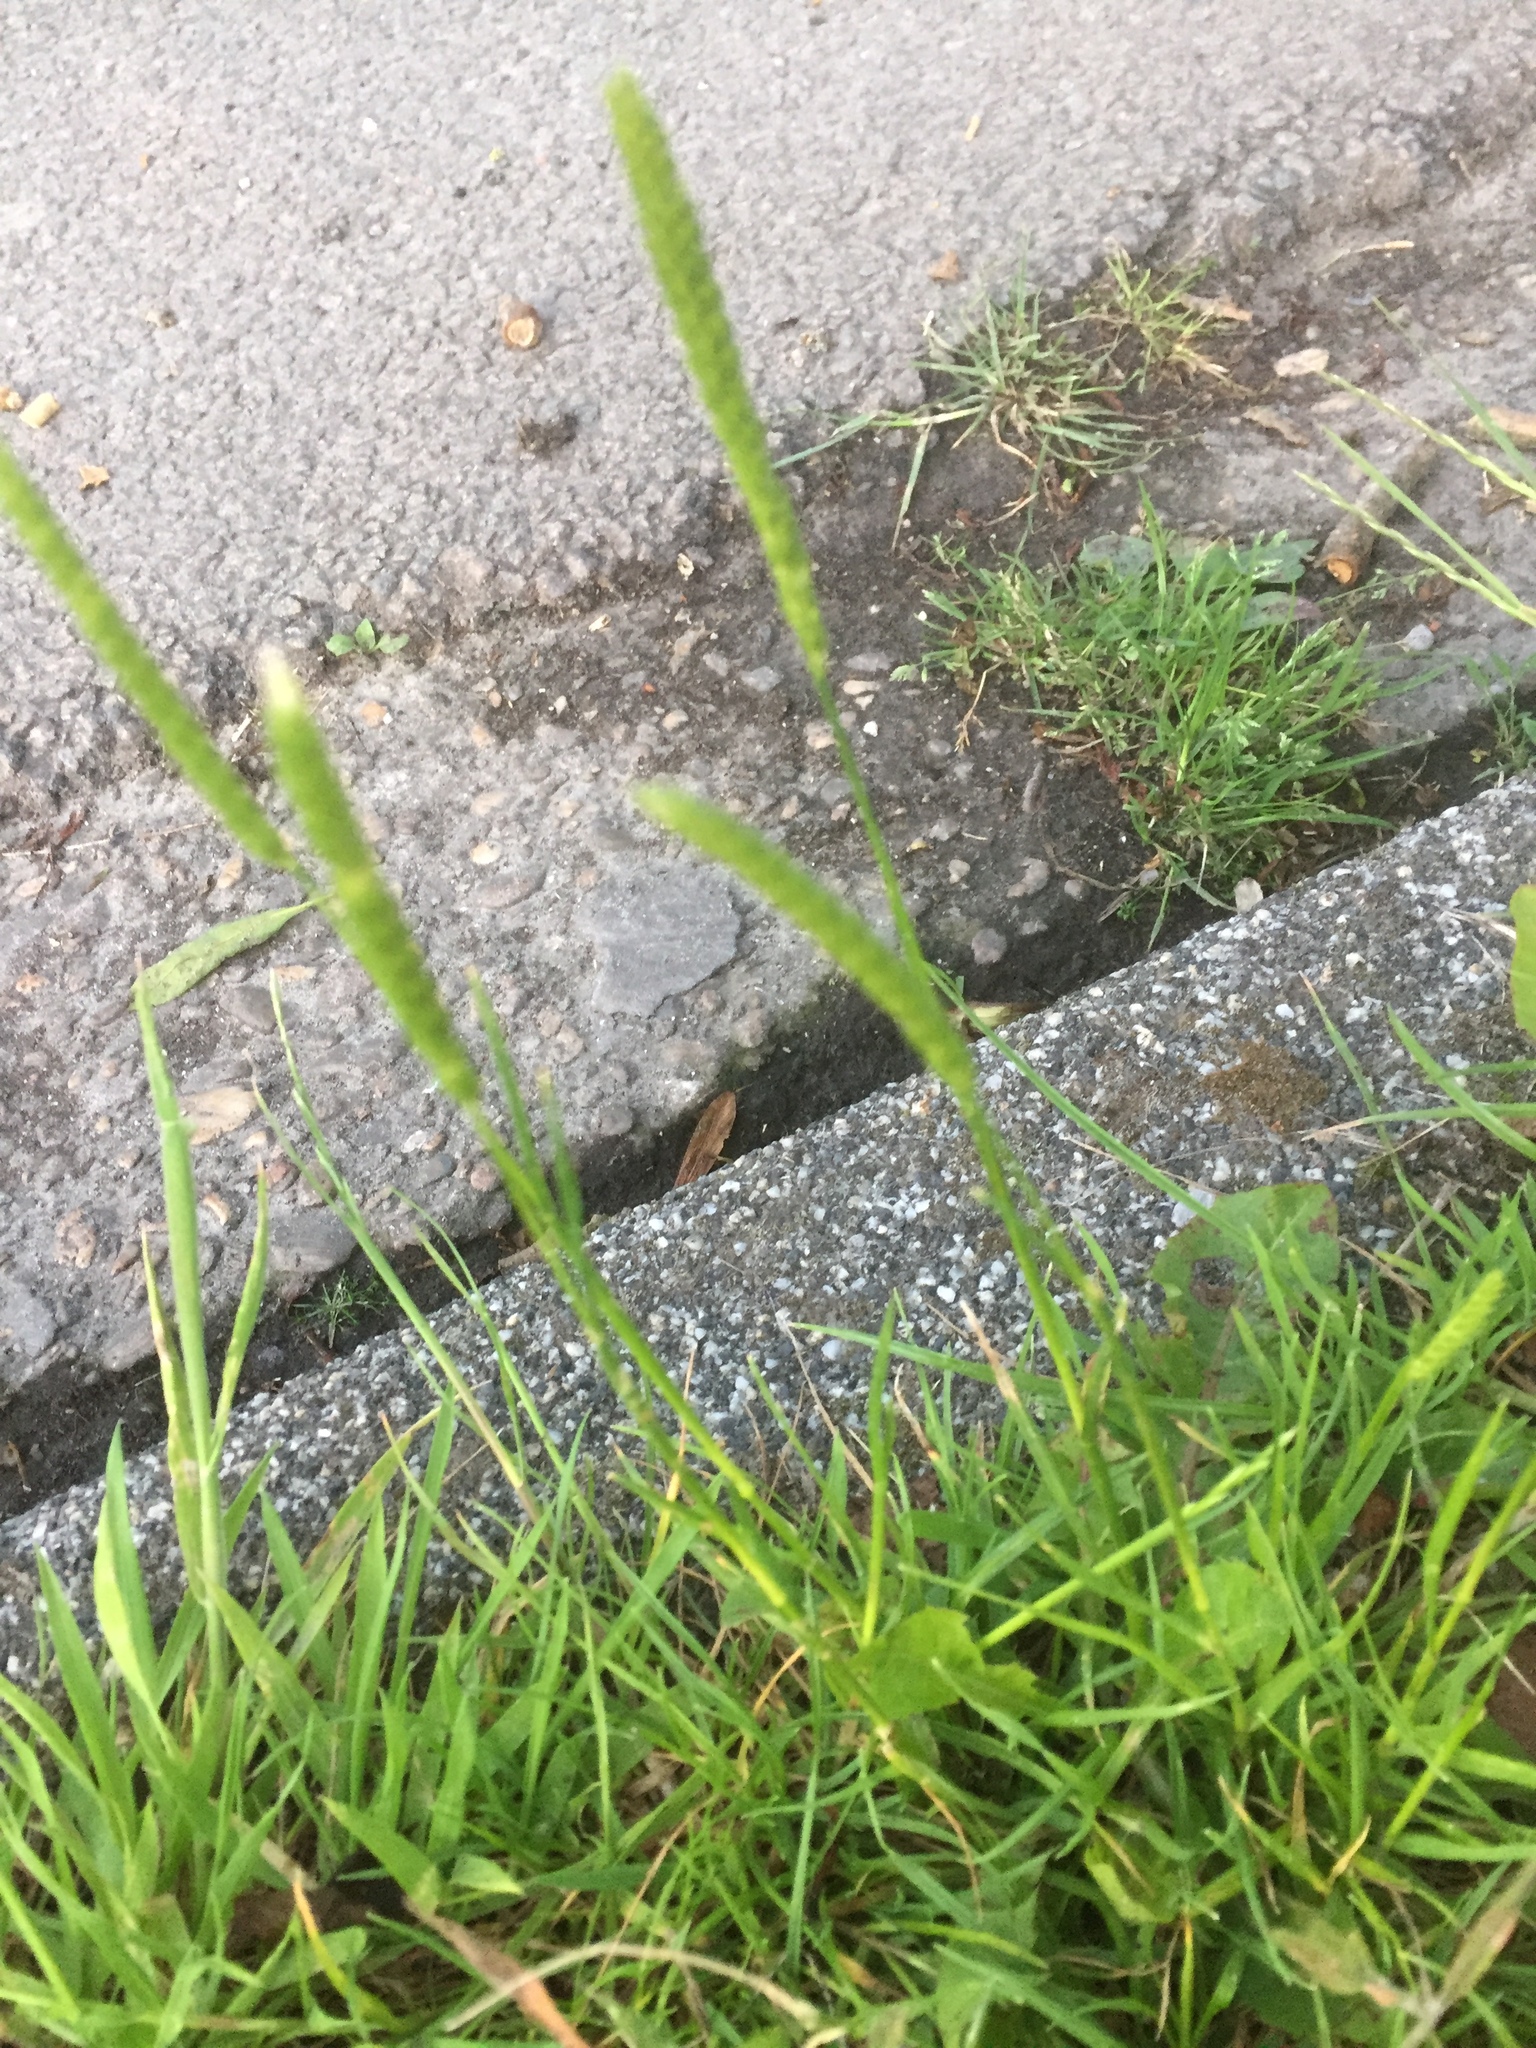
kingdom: Plantae
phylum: Tracheophyta
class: Liliopsida
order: Poales
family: Poaceae
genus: Cynosurus
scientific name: Cynosurus cristatus
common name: Crested dog's-tail
